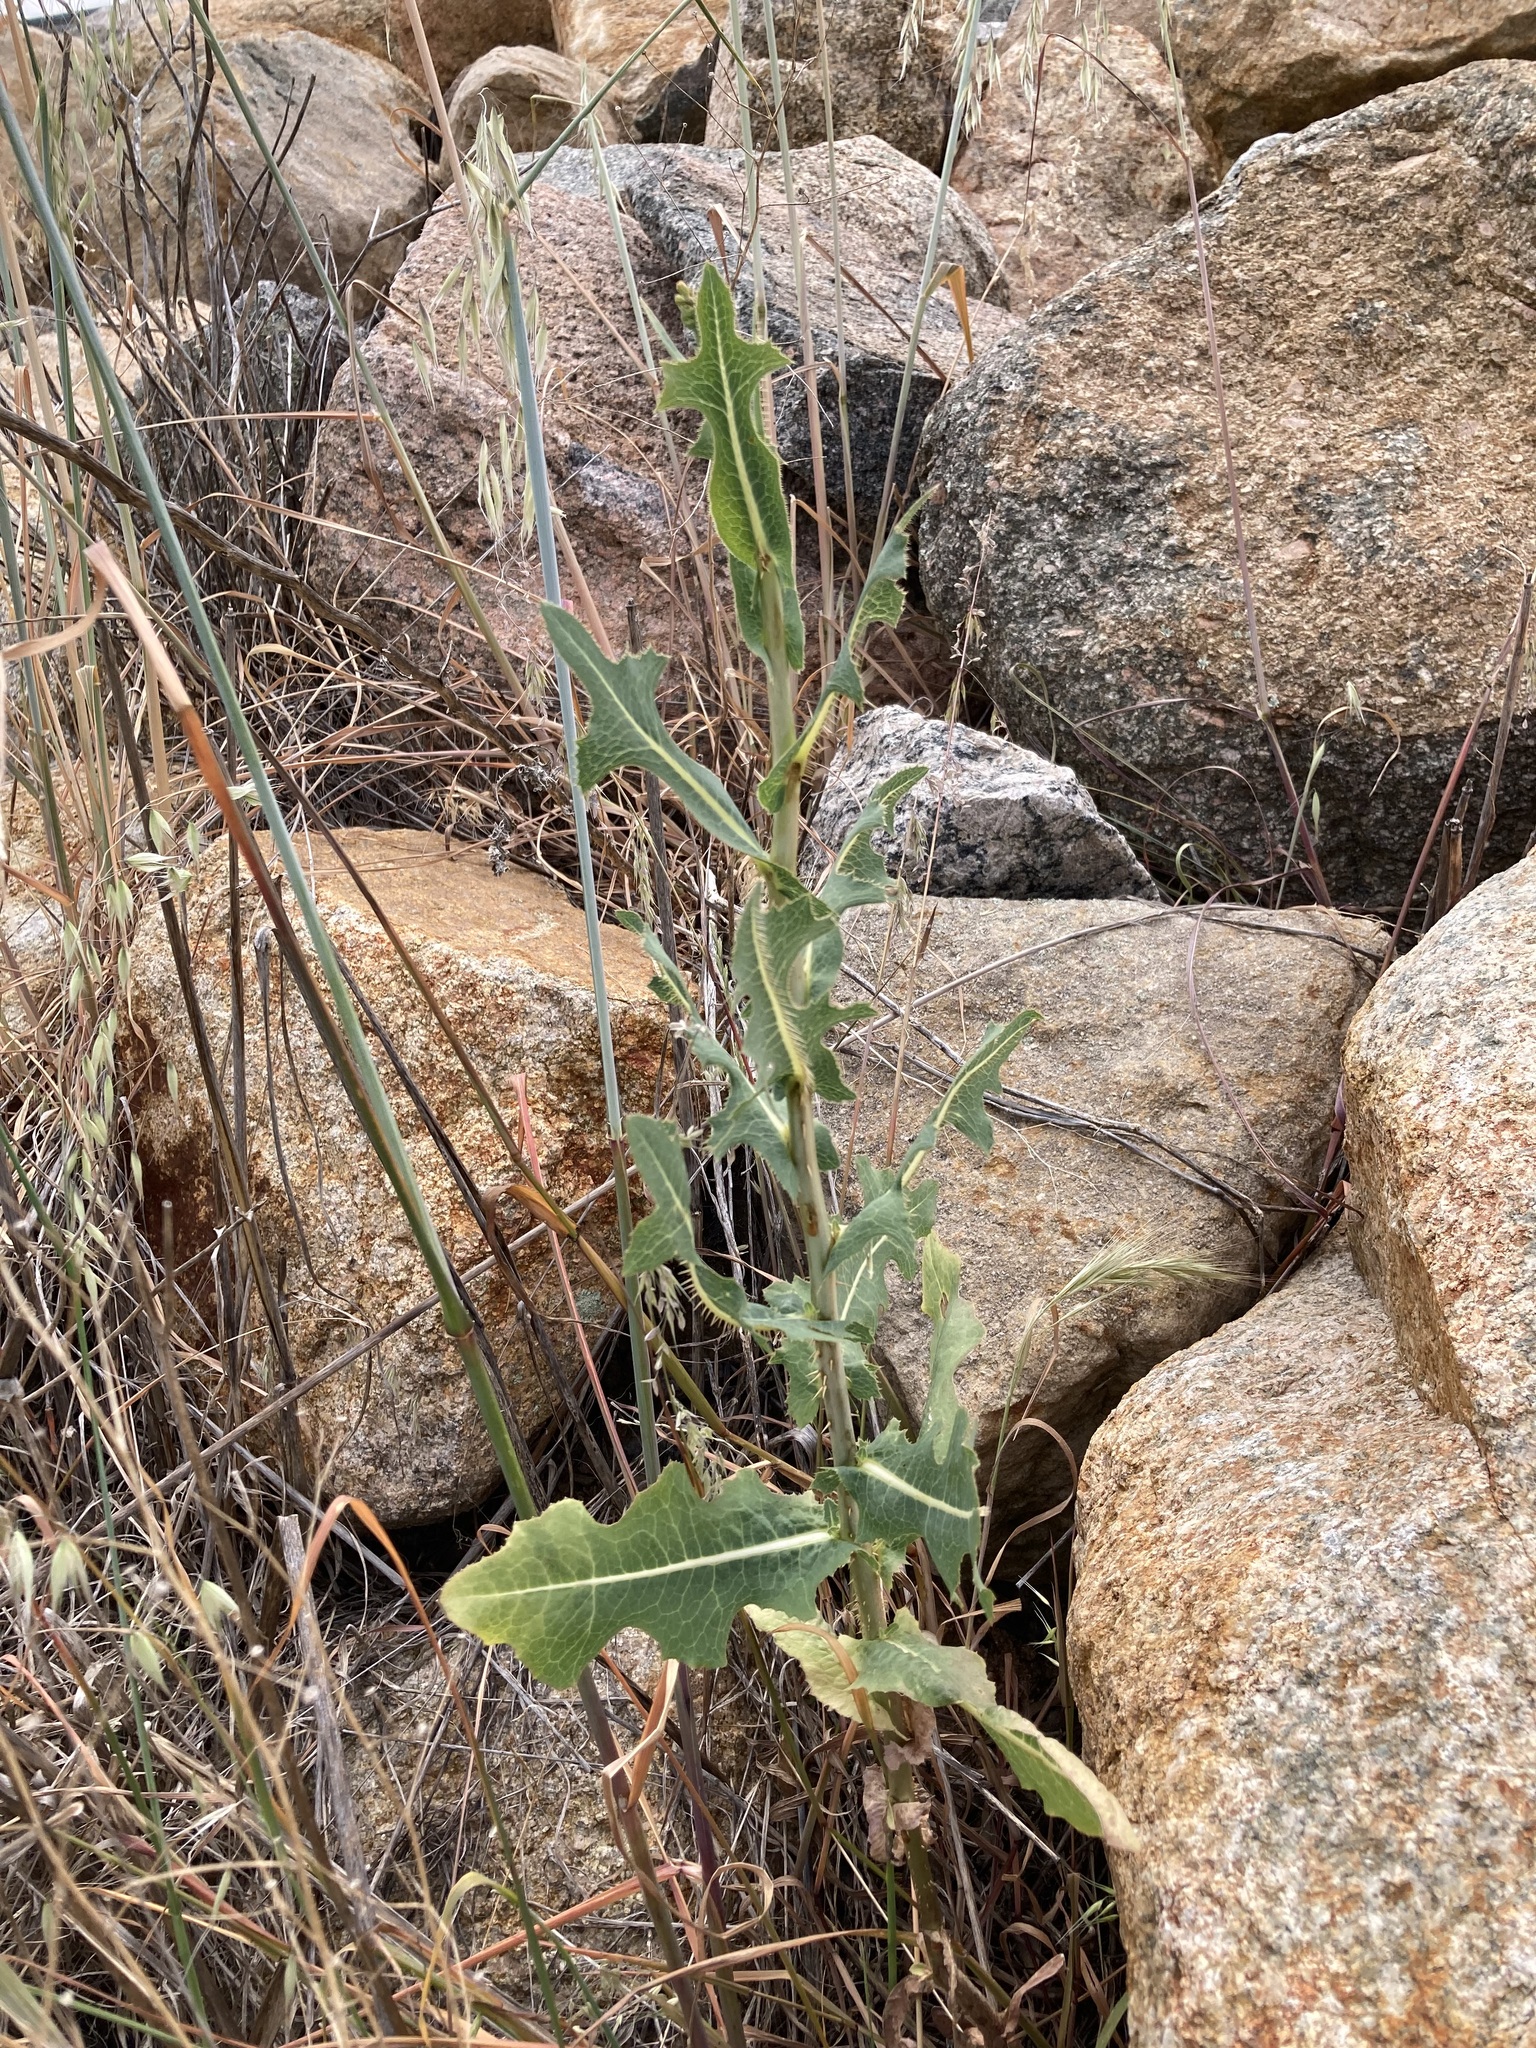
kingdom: Plantae
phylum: Tracheophyta
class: Magnoliopsida
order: Asterales
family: Asteraceae
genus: Lactuca
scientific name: Lactuca serriola
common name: Prickly lettuce
